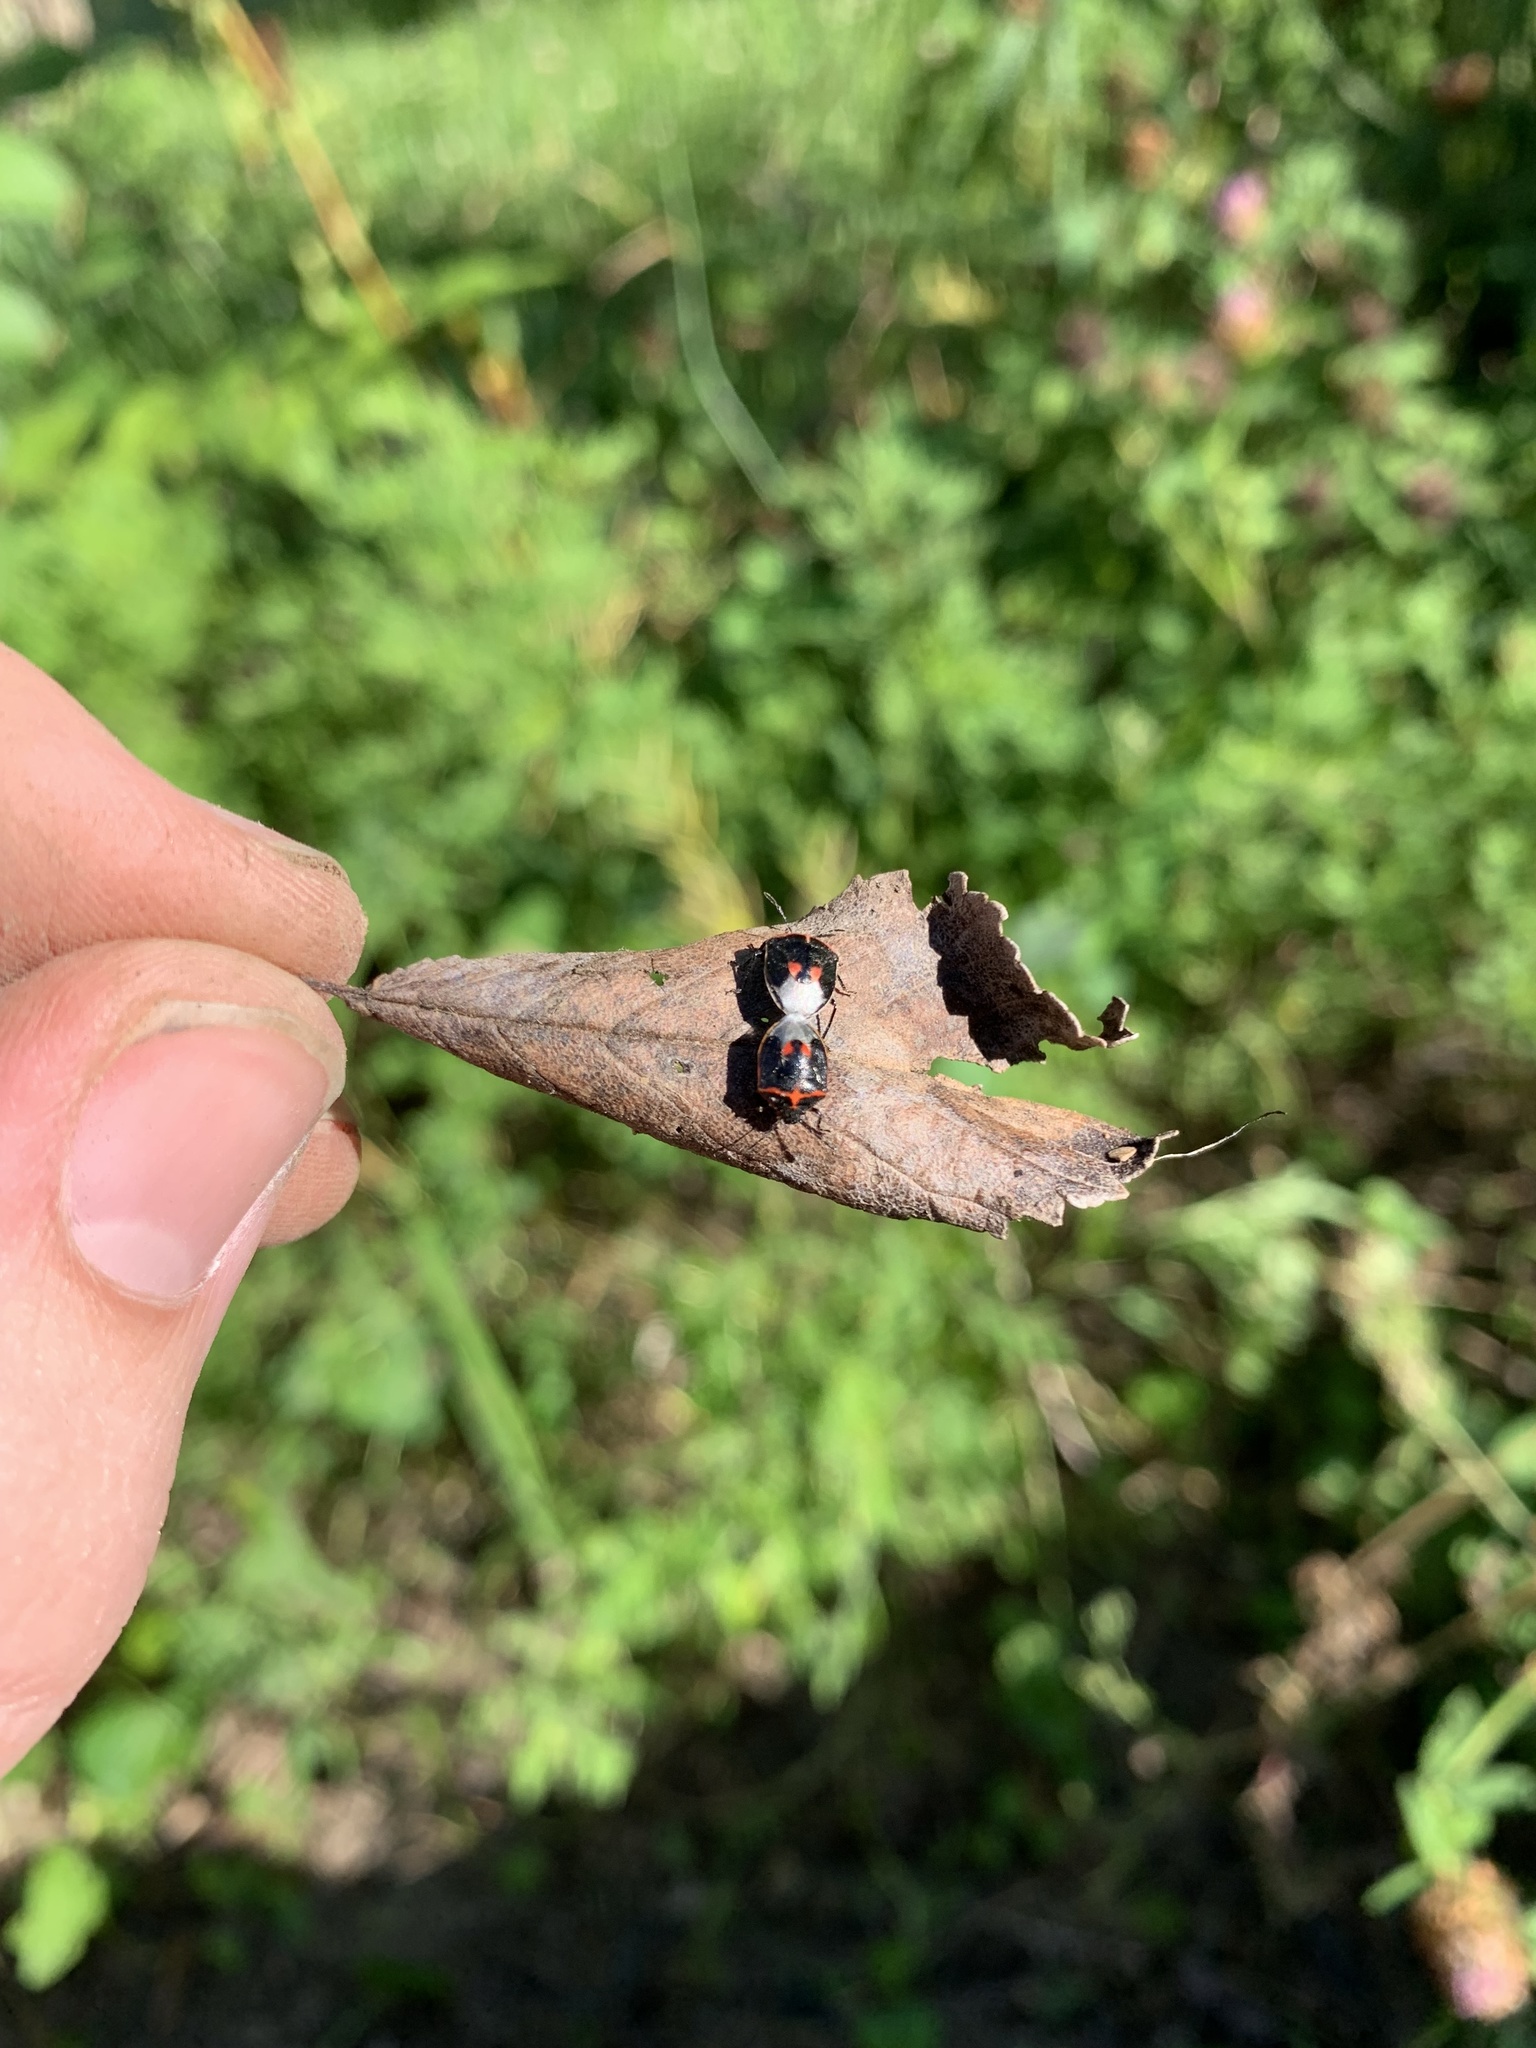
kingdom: Animalia
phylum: Arthropoda
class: Insecta
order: Hemiptera
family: Pentatomidae
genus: Cosmopepla
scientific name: Cosmopepla lintneriana
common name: Twice-stabbed stink bug
